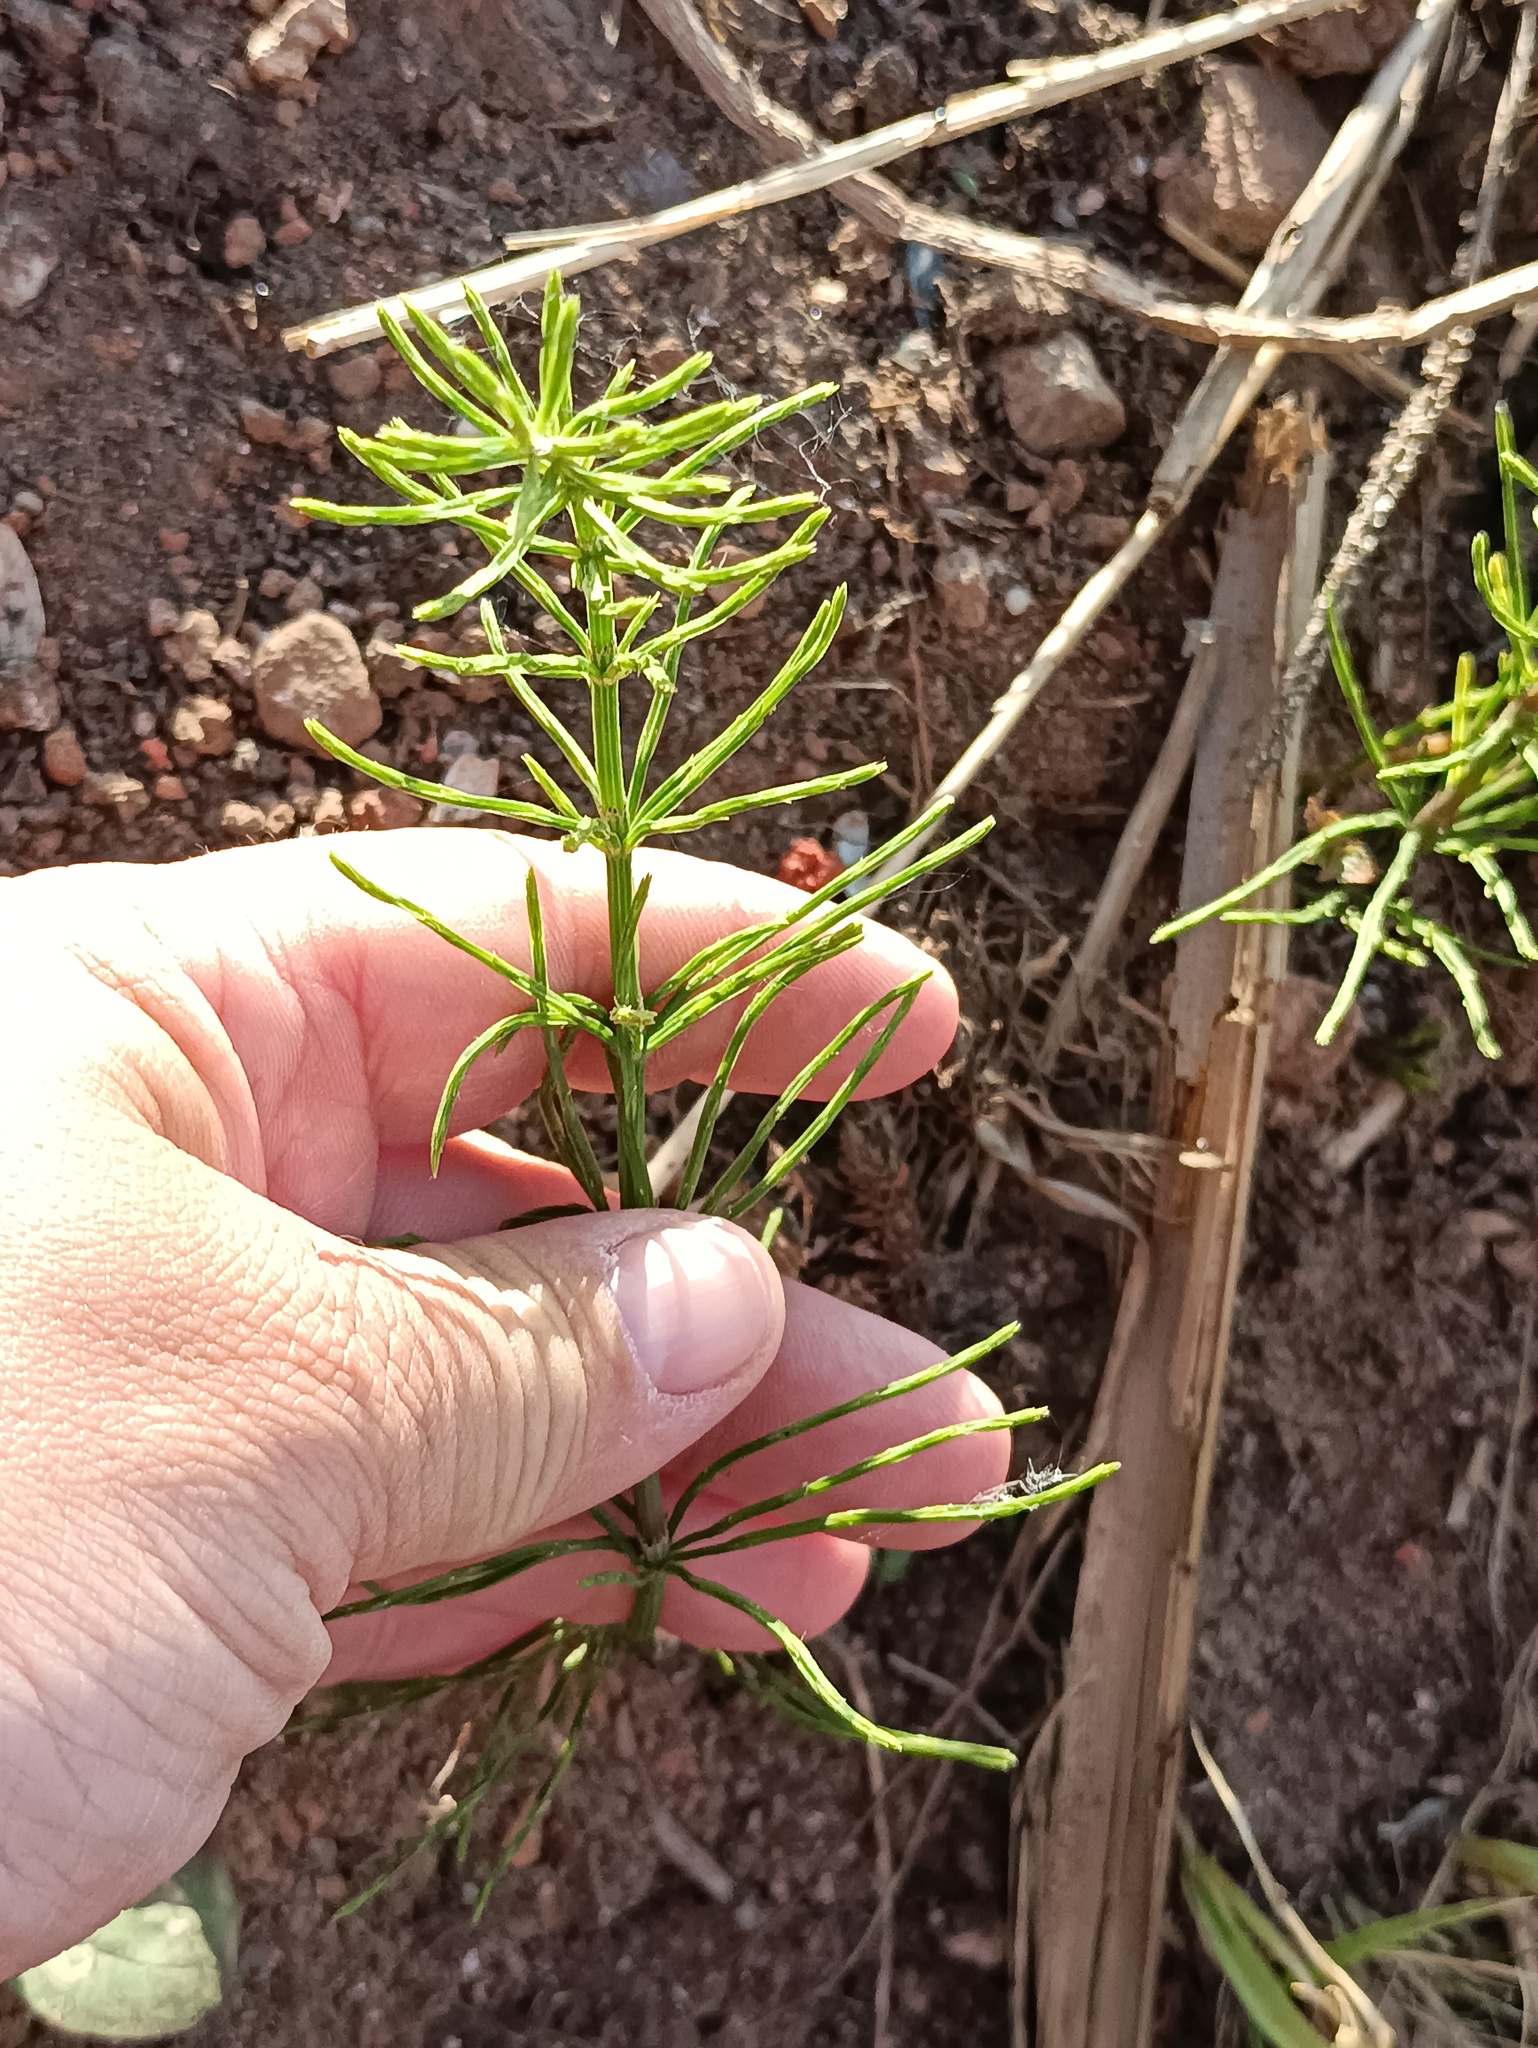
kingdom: Plantae
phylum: Tracheophyta
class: Polypodiopsida
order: Equisetales
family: Equisetaceae
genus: Equisetum
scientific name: Equisetum arvense
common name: Field horsetail
